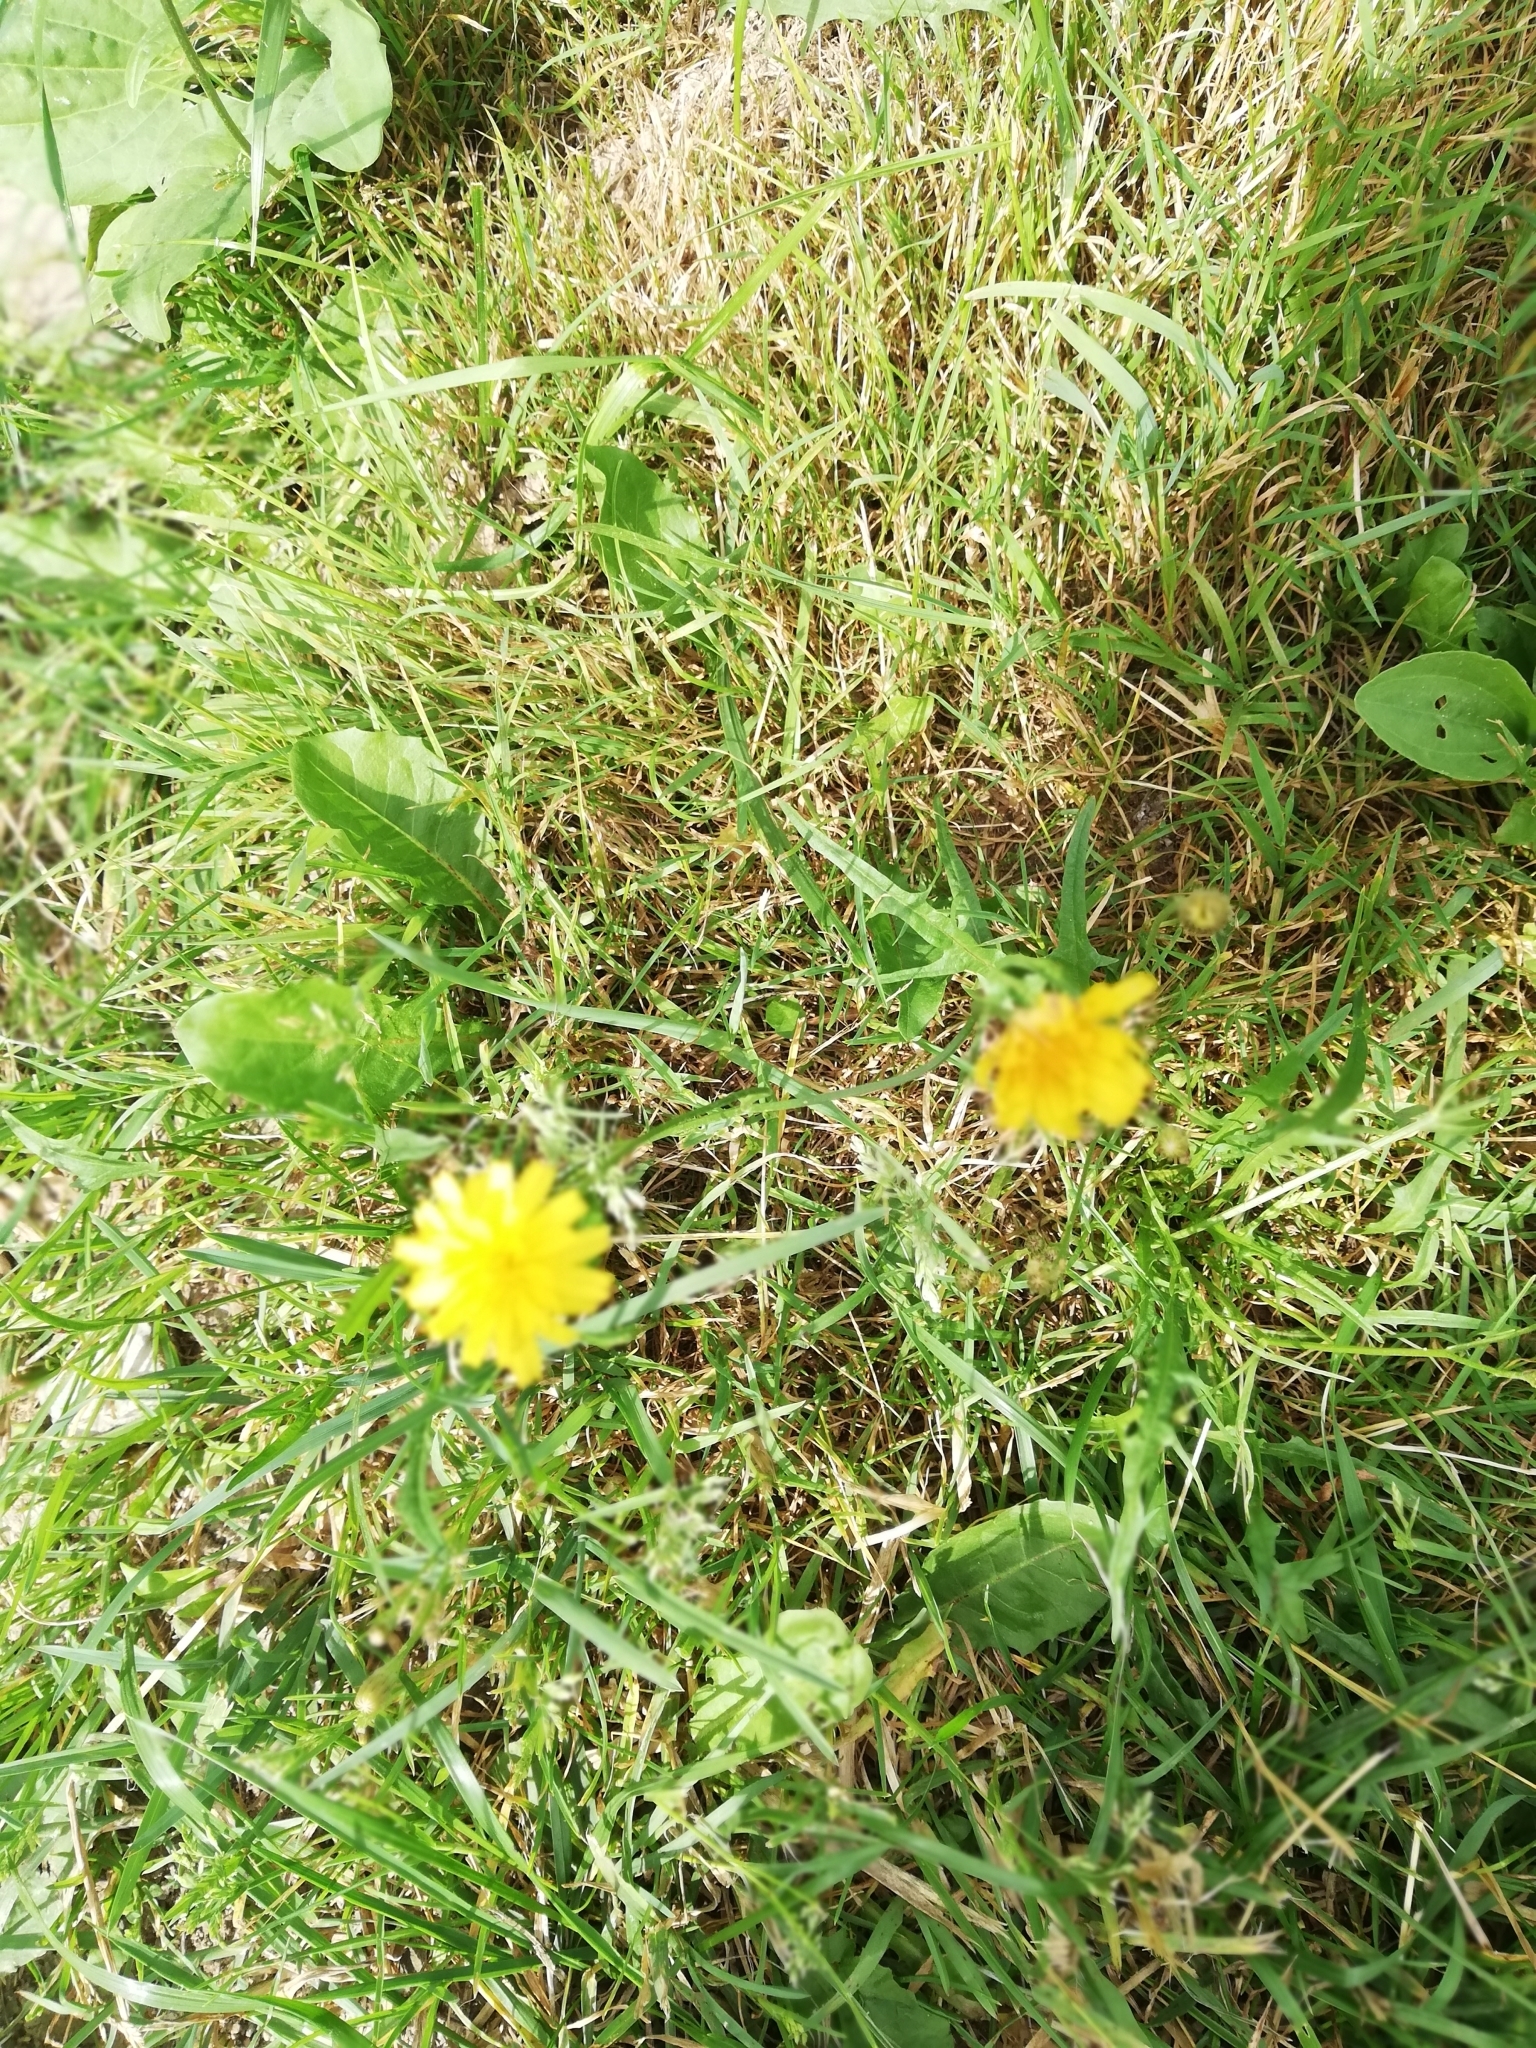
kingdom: Plantae
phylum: Tracheophyta
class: Magnoliopsida
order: Asterales
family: Asteraceae
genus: Scorzoneroides
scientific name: Scorzoneroides autumnalis
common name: Autumn hawkbit
